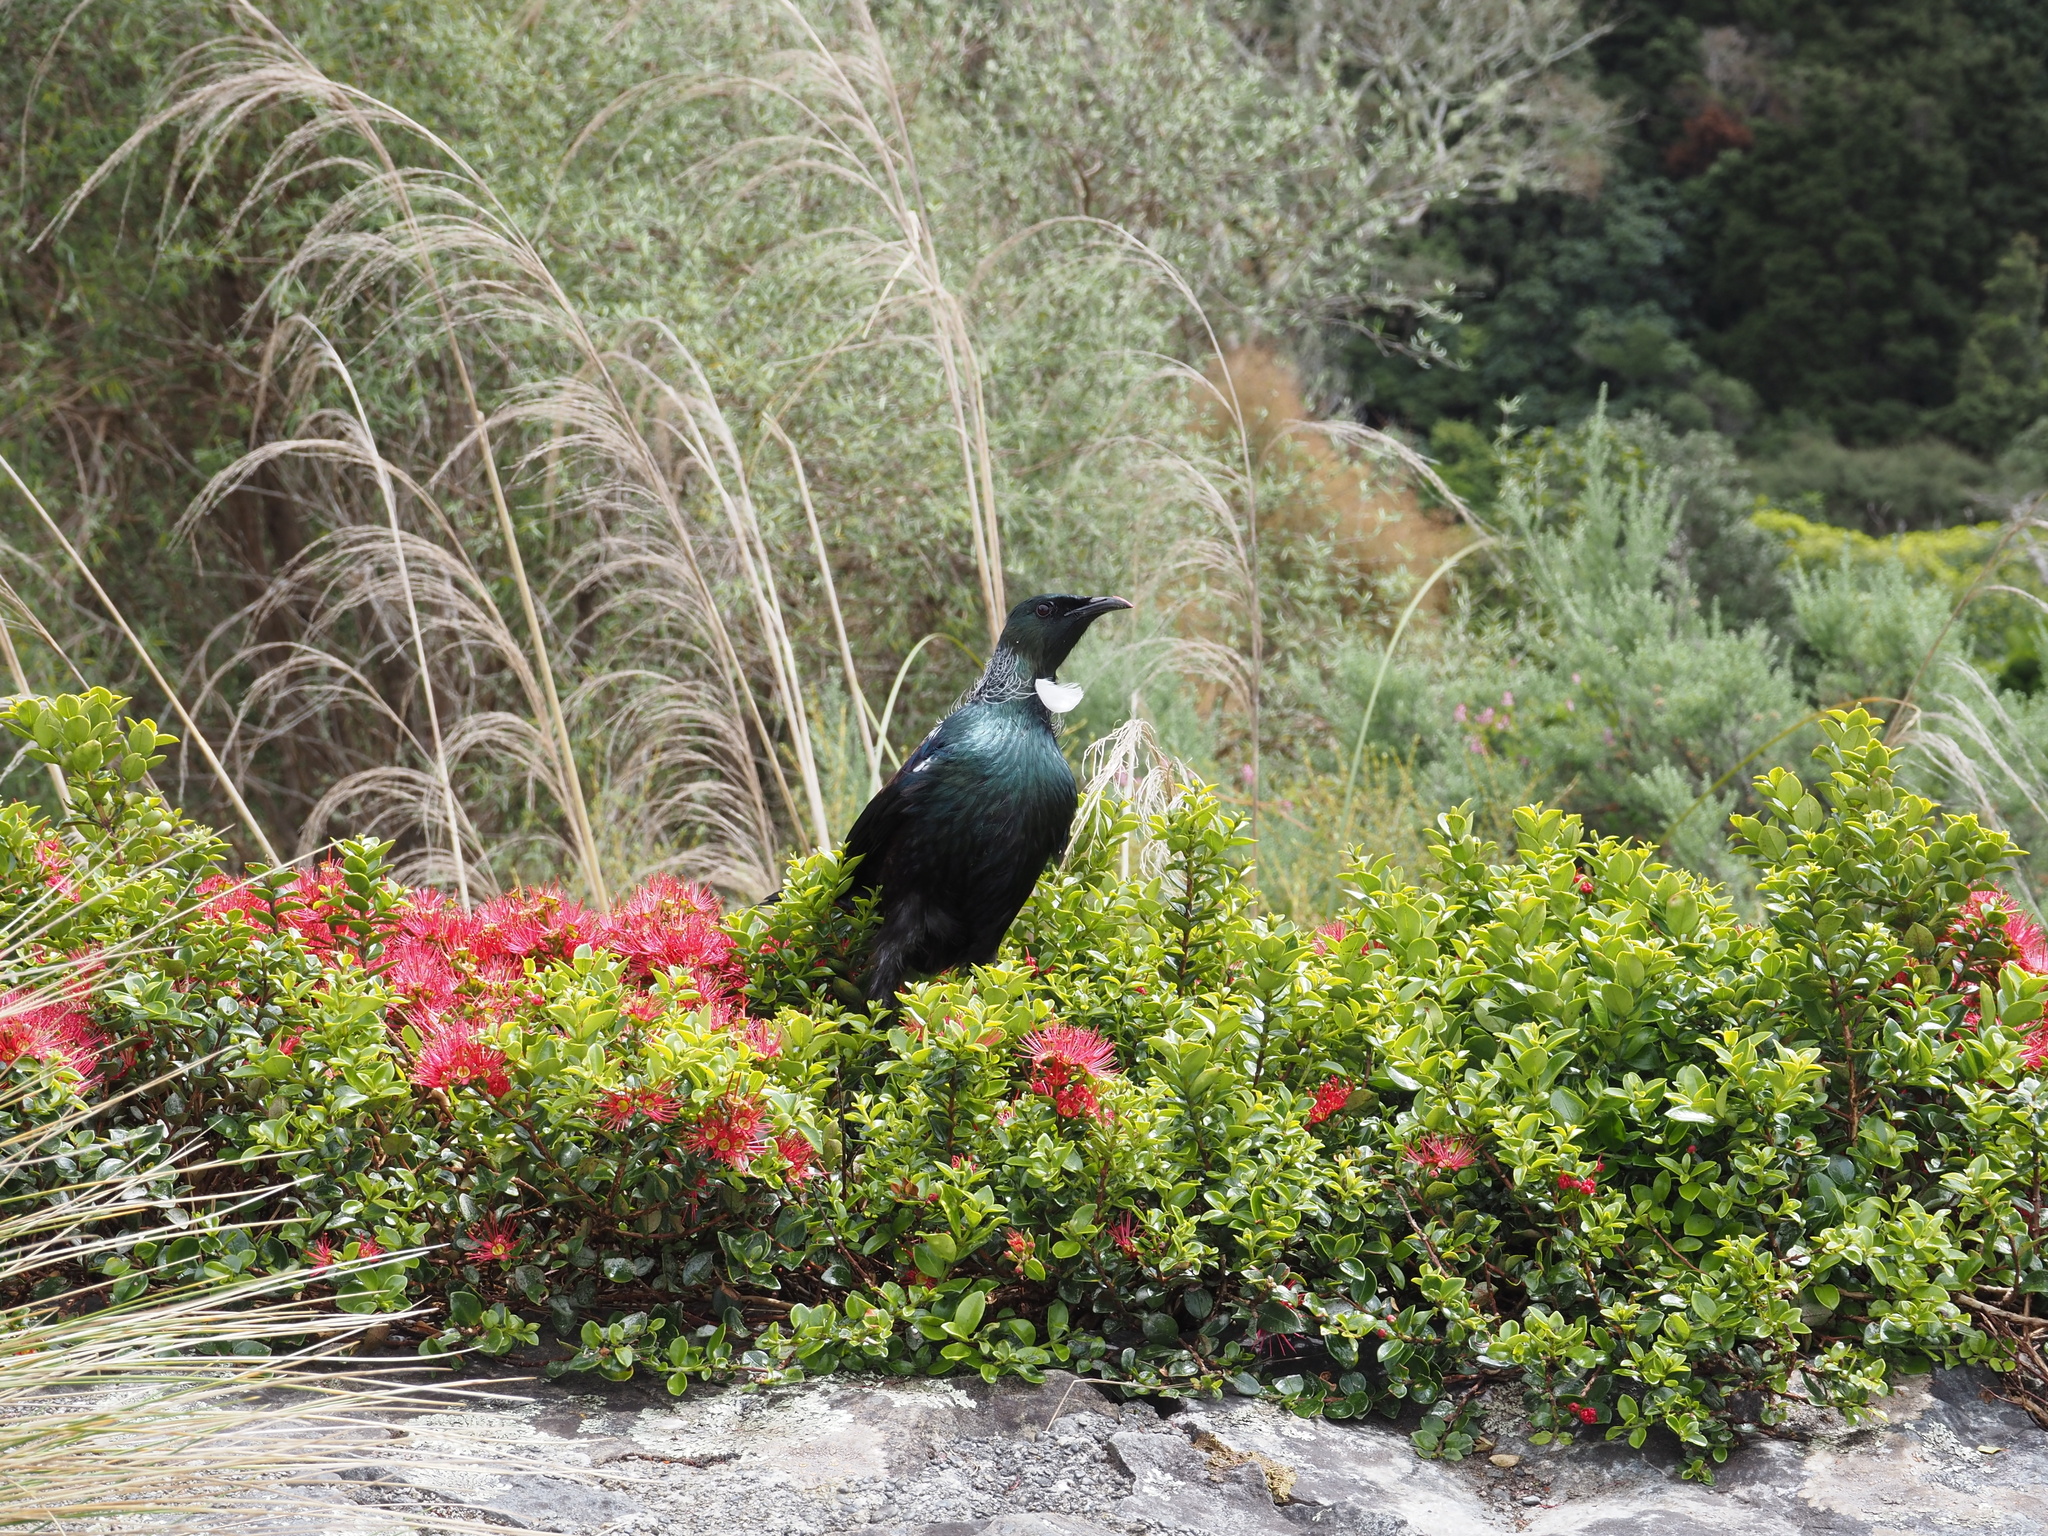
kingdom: Animalia
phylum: Chordata
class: Aves
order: Passeriformes
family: Meliphagidae
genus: Prosthemadera
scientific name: Prosthemadera novaeseelandiae
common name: Tui
